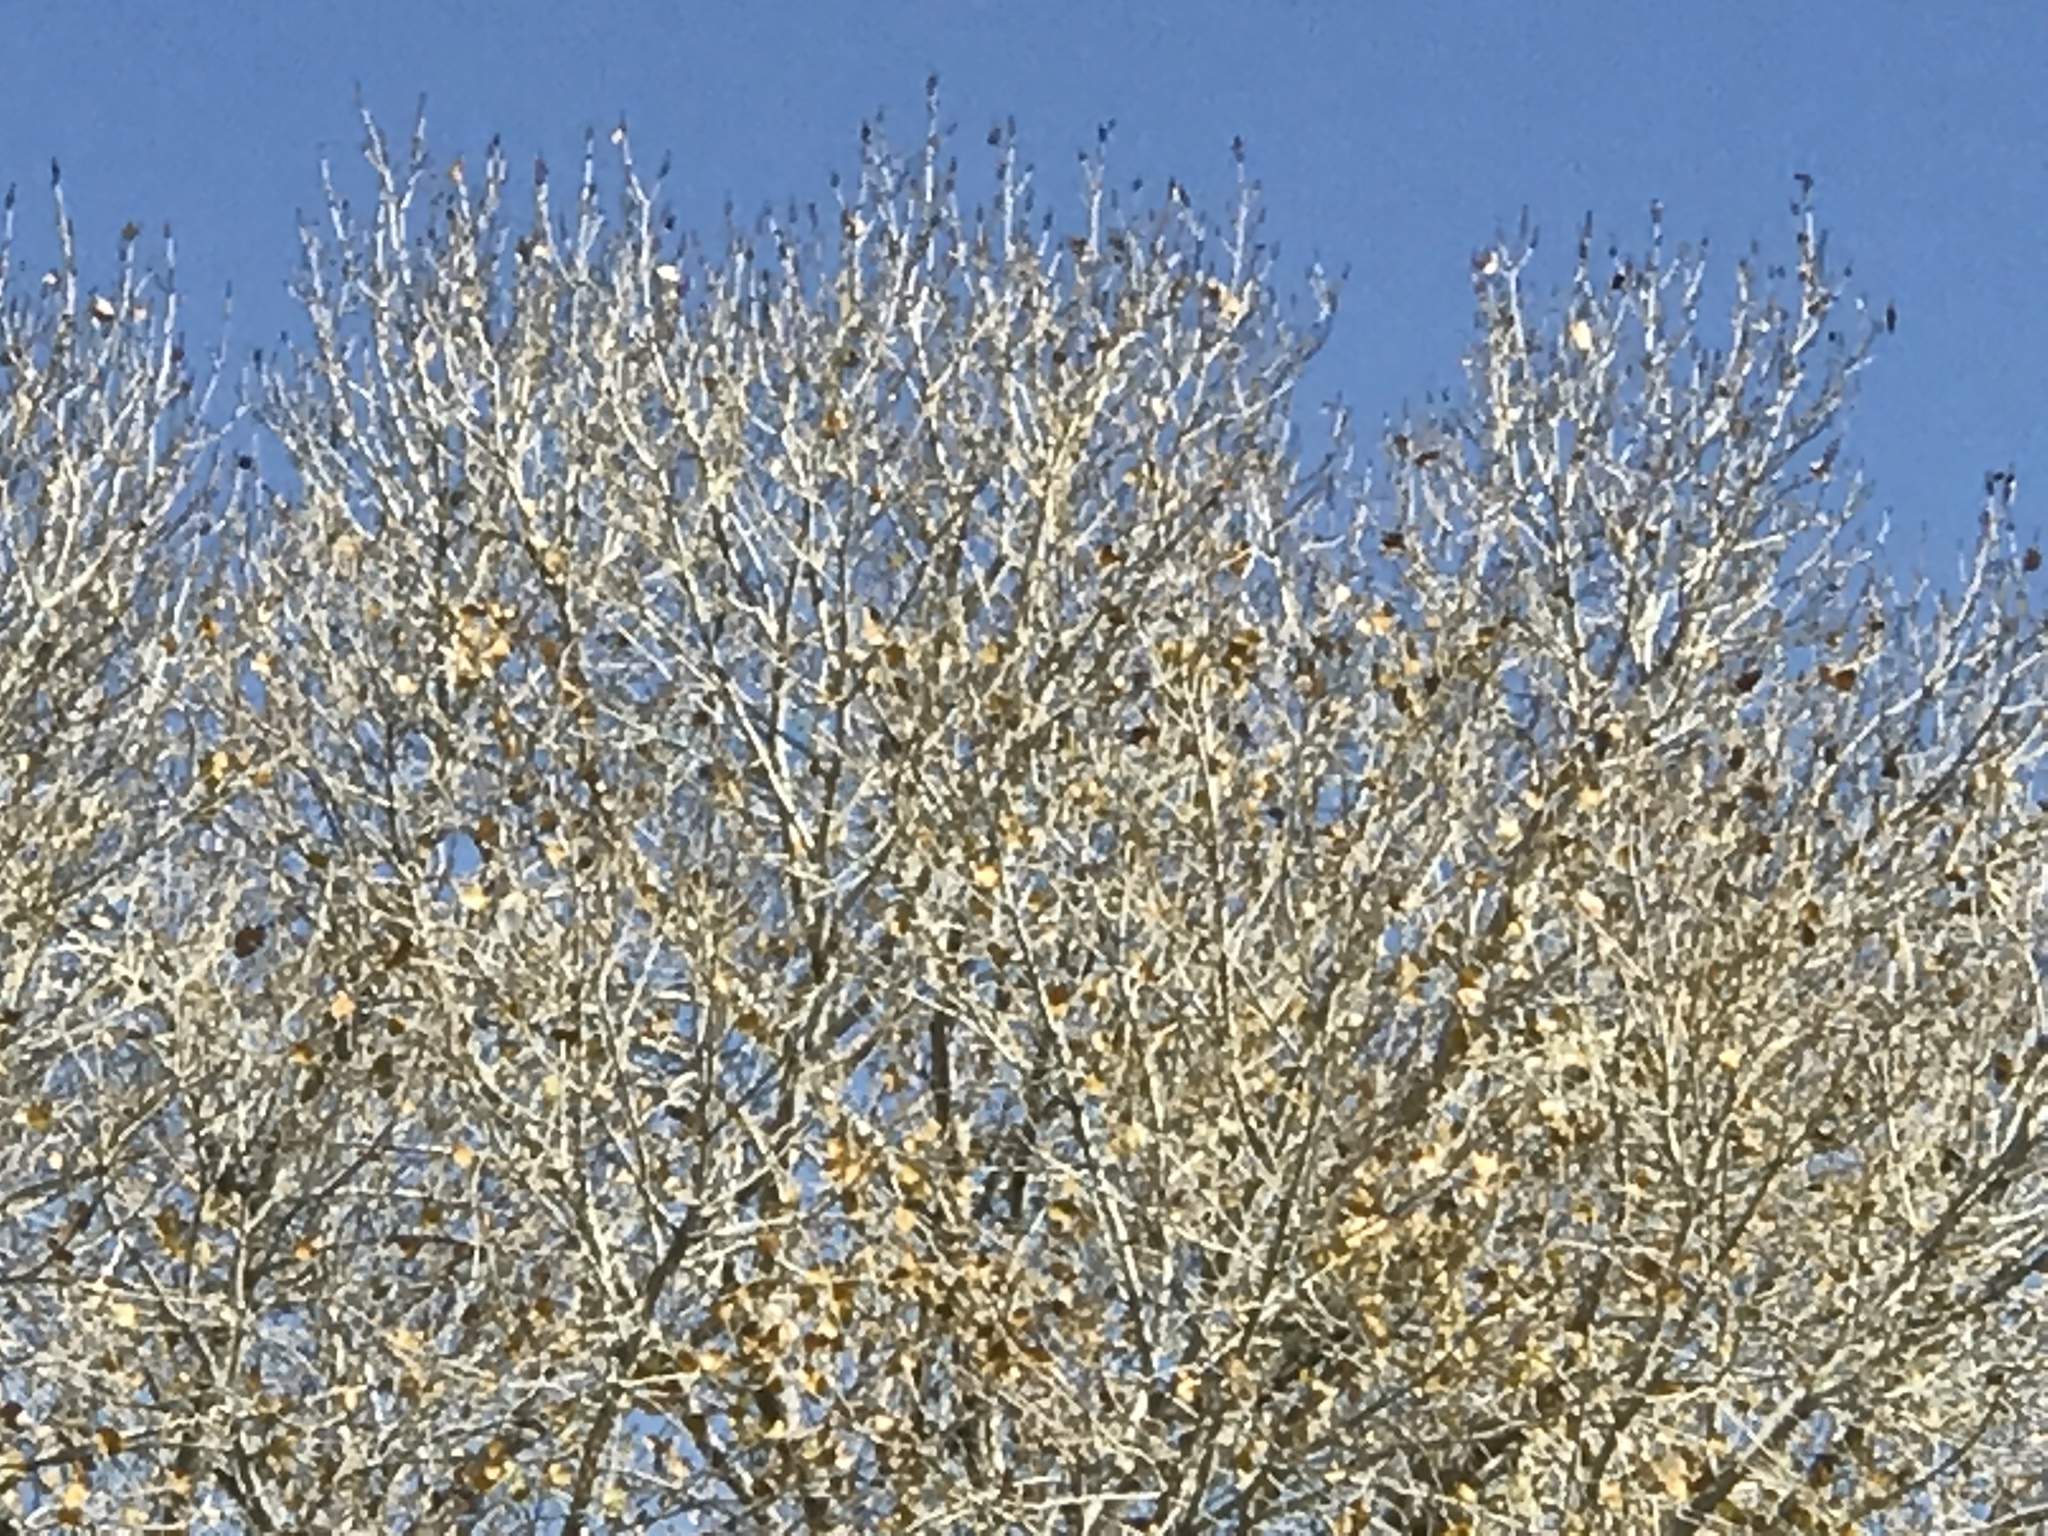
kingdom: Plantae
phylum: Tracheophyta
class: Magnoliopsida
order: Malpighiales
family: Salicaceae
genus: Populus
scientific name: Populus fremontii
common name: Fremont's cottonwood
